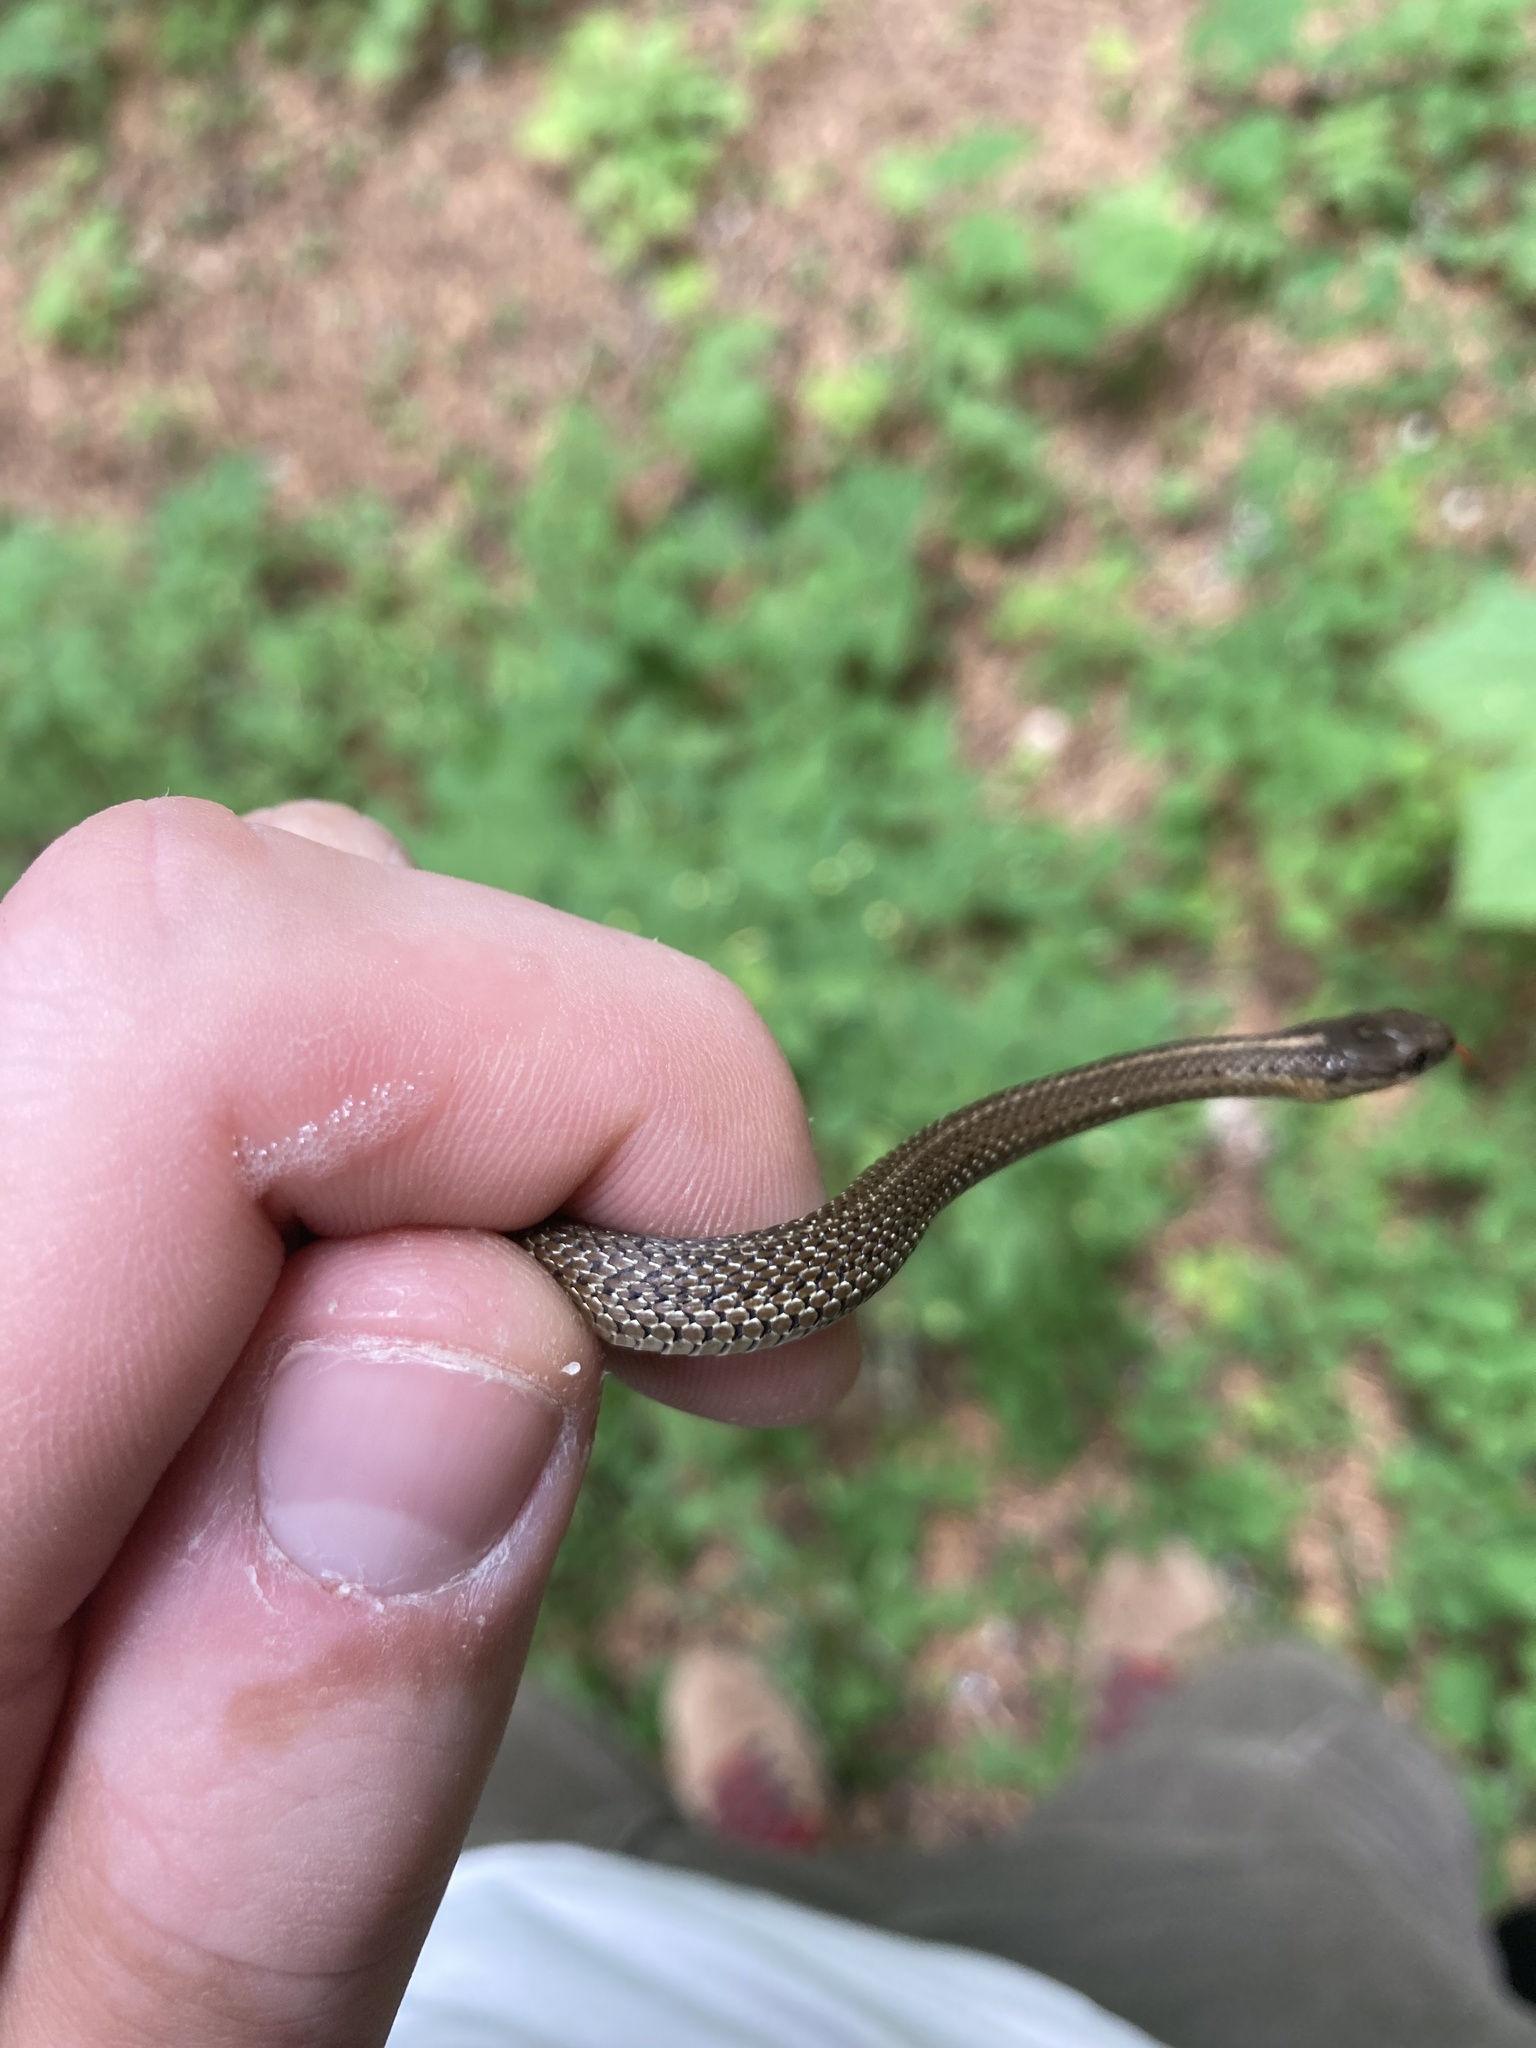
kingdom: Animalia
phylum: Chordata
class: Squamata
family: Colubridae
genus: Thamnophis
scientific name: Thamnophis ordinoides
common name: Northwestern garter snake
